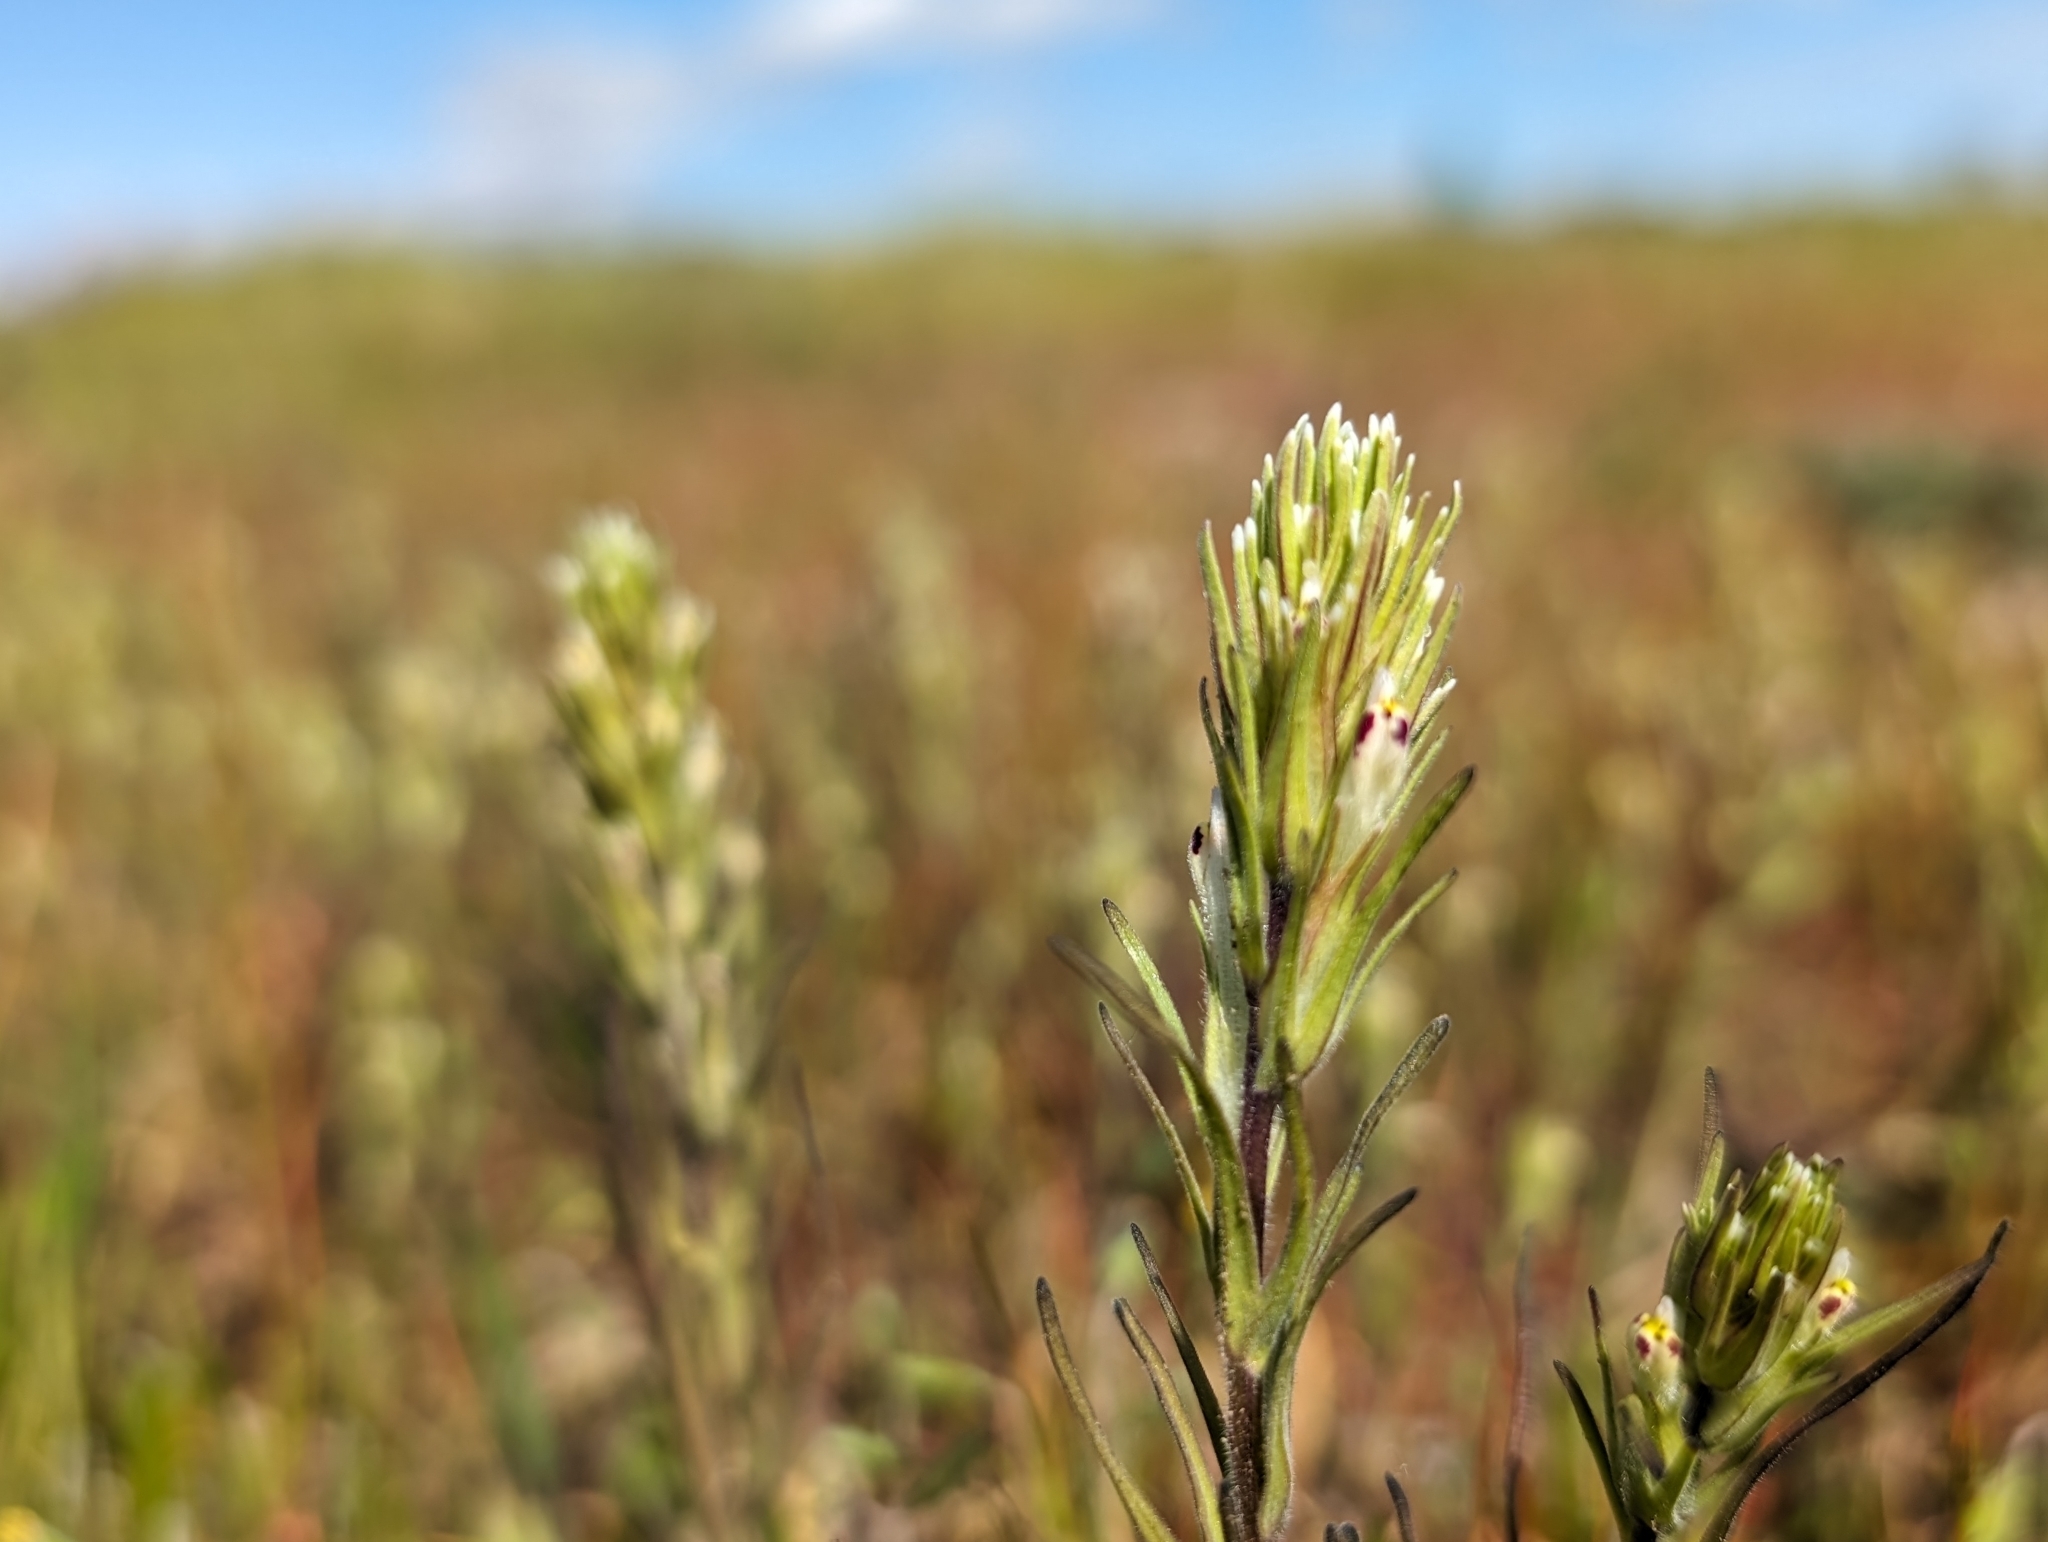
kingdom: Plantae
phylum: Tracheophyta
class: Magnoliopsida
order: Lamiales
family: Orobanchaceae
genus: Castilleja
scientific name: Castilleja attenuata
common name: Valley tassels
